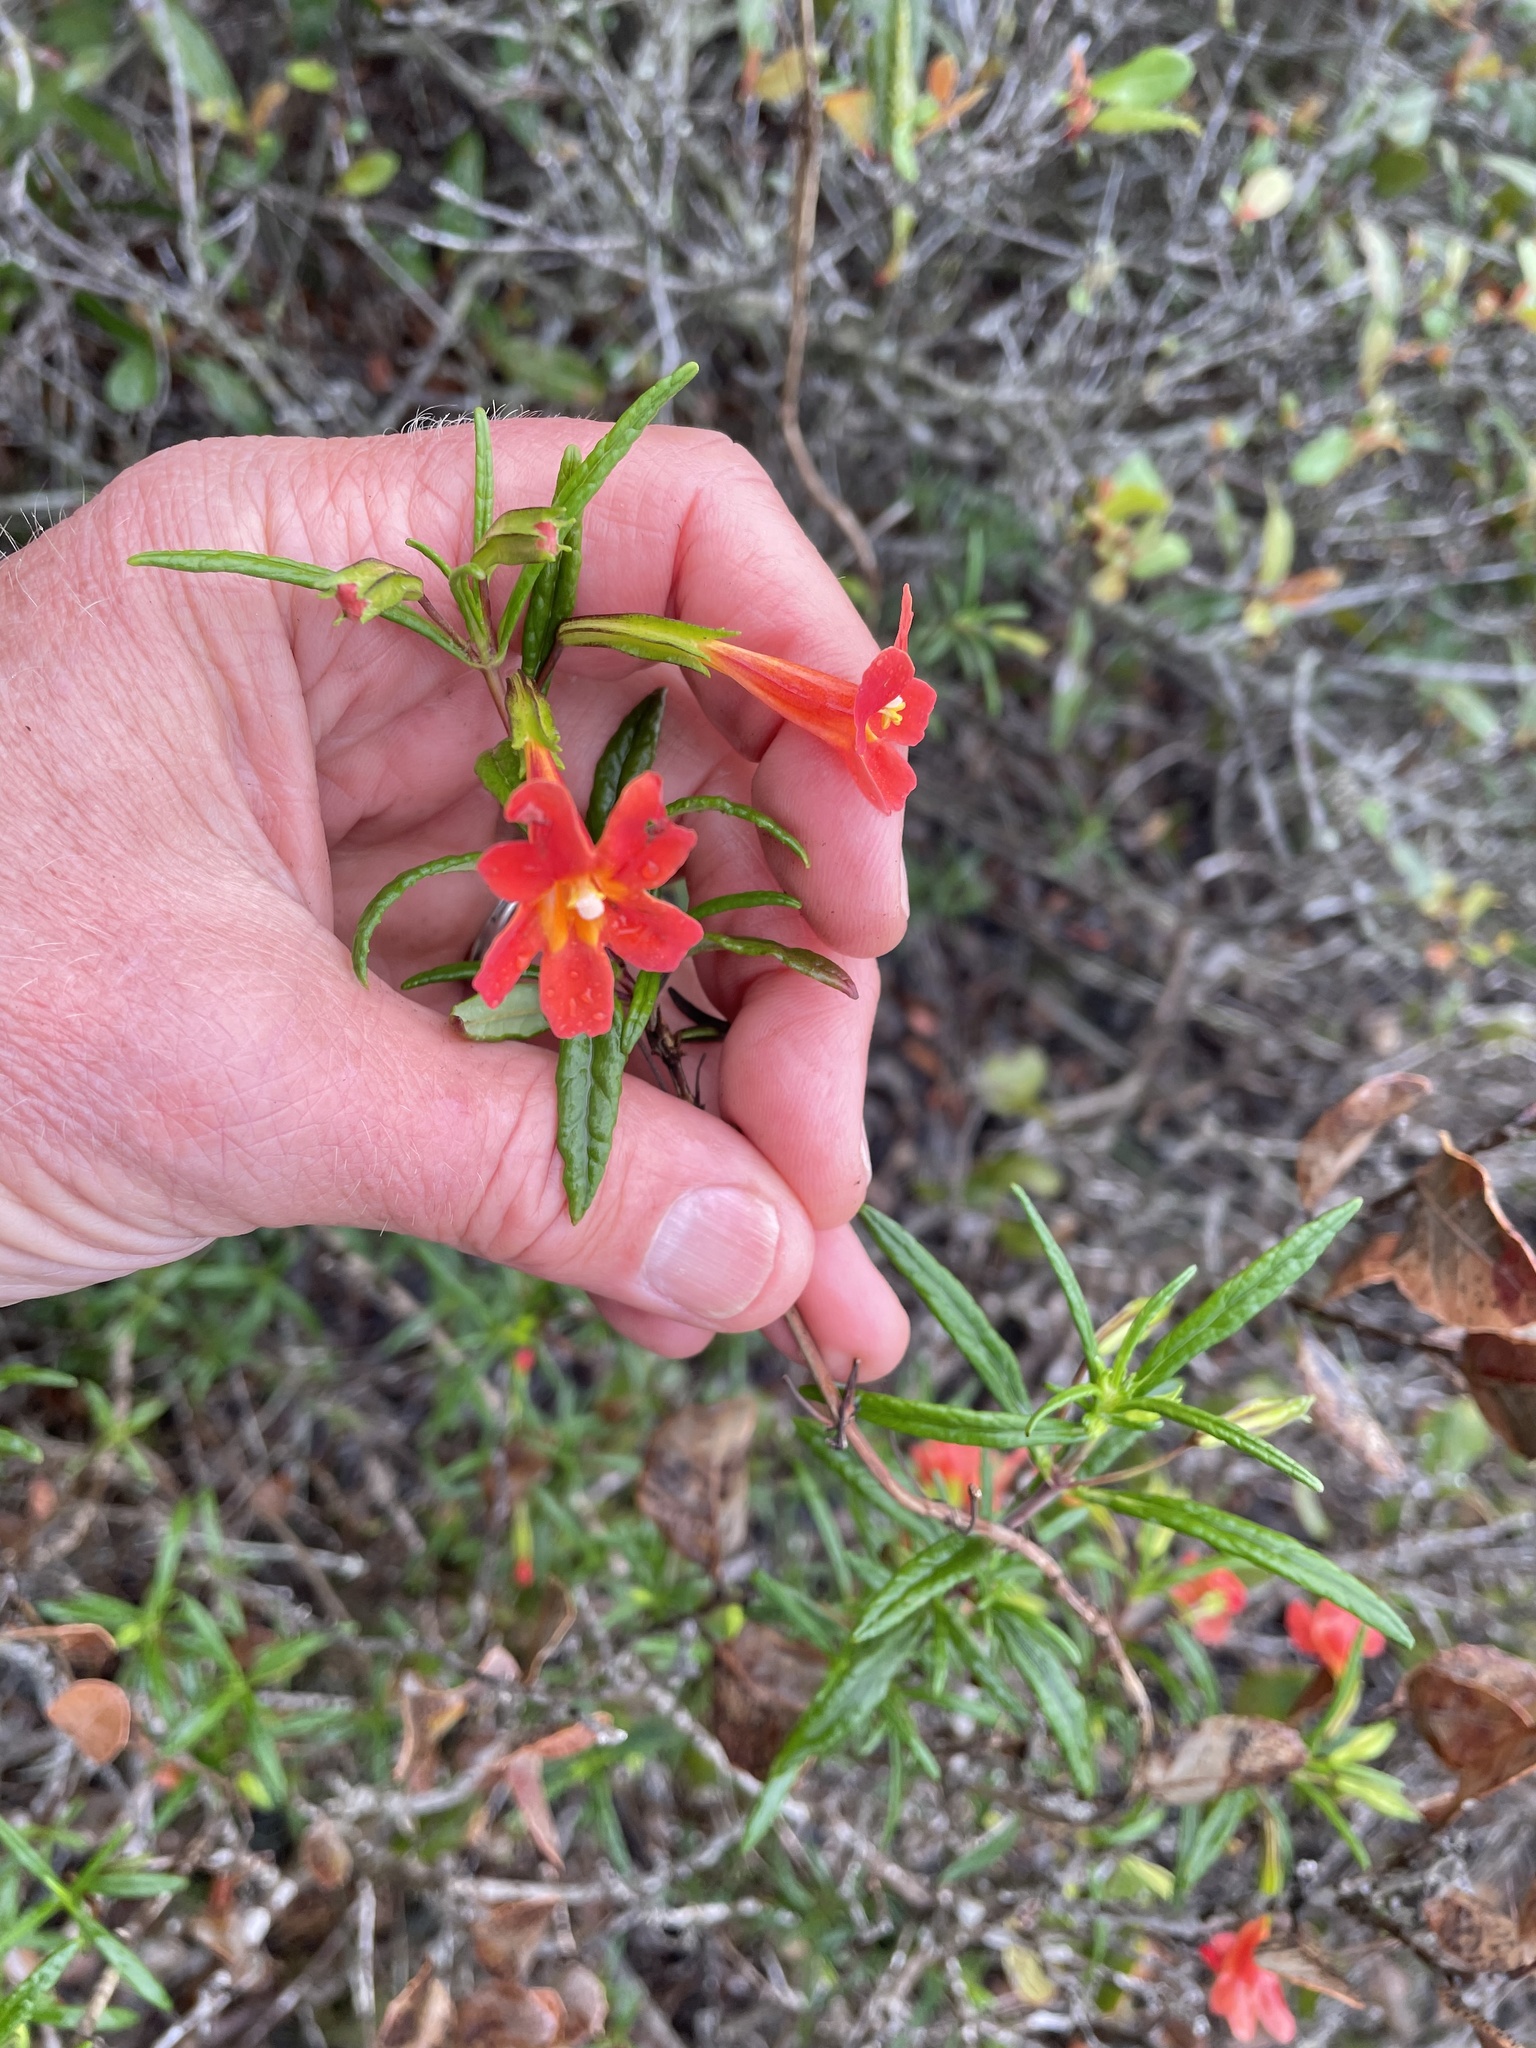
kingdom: Plantae
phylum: Tracheophyta
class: Magnoliopsida
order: Lamiales
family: Phrymaceae
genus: Diplacus
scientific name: Diplacus puniceus
